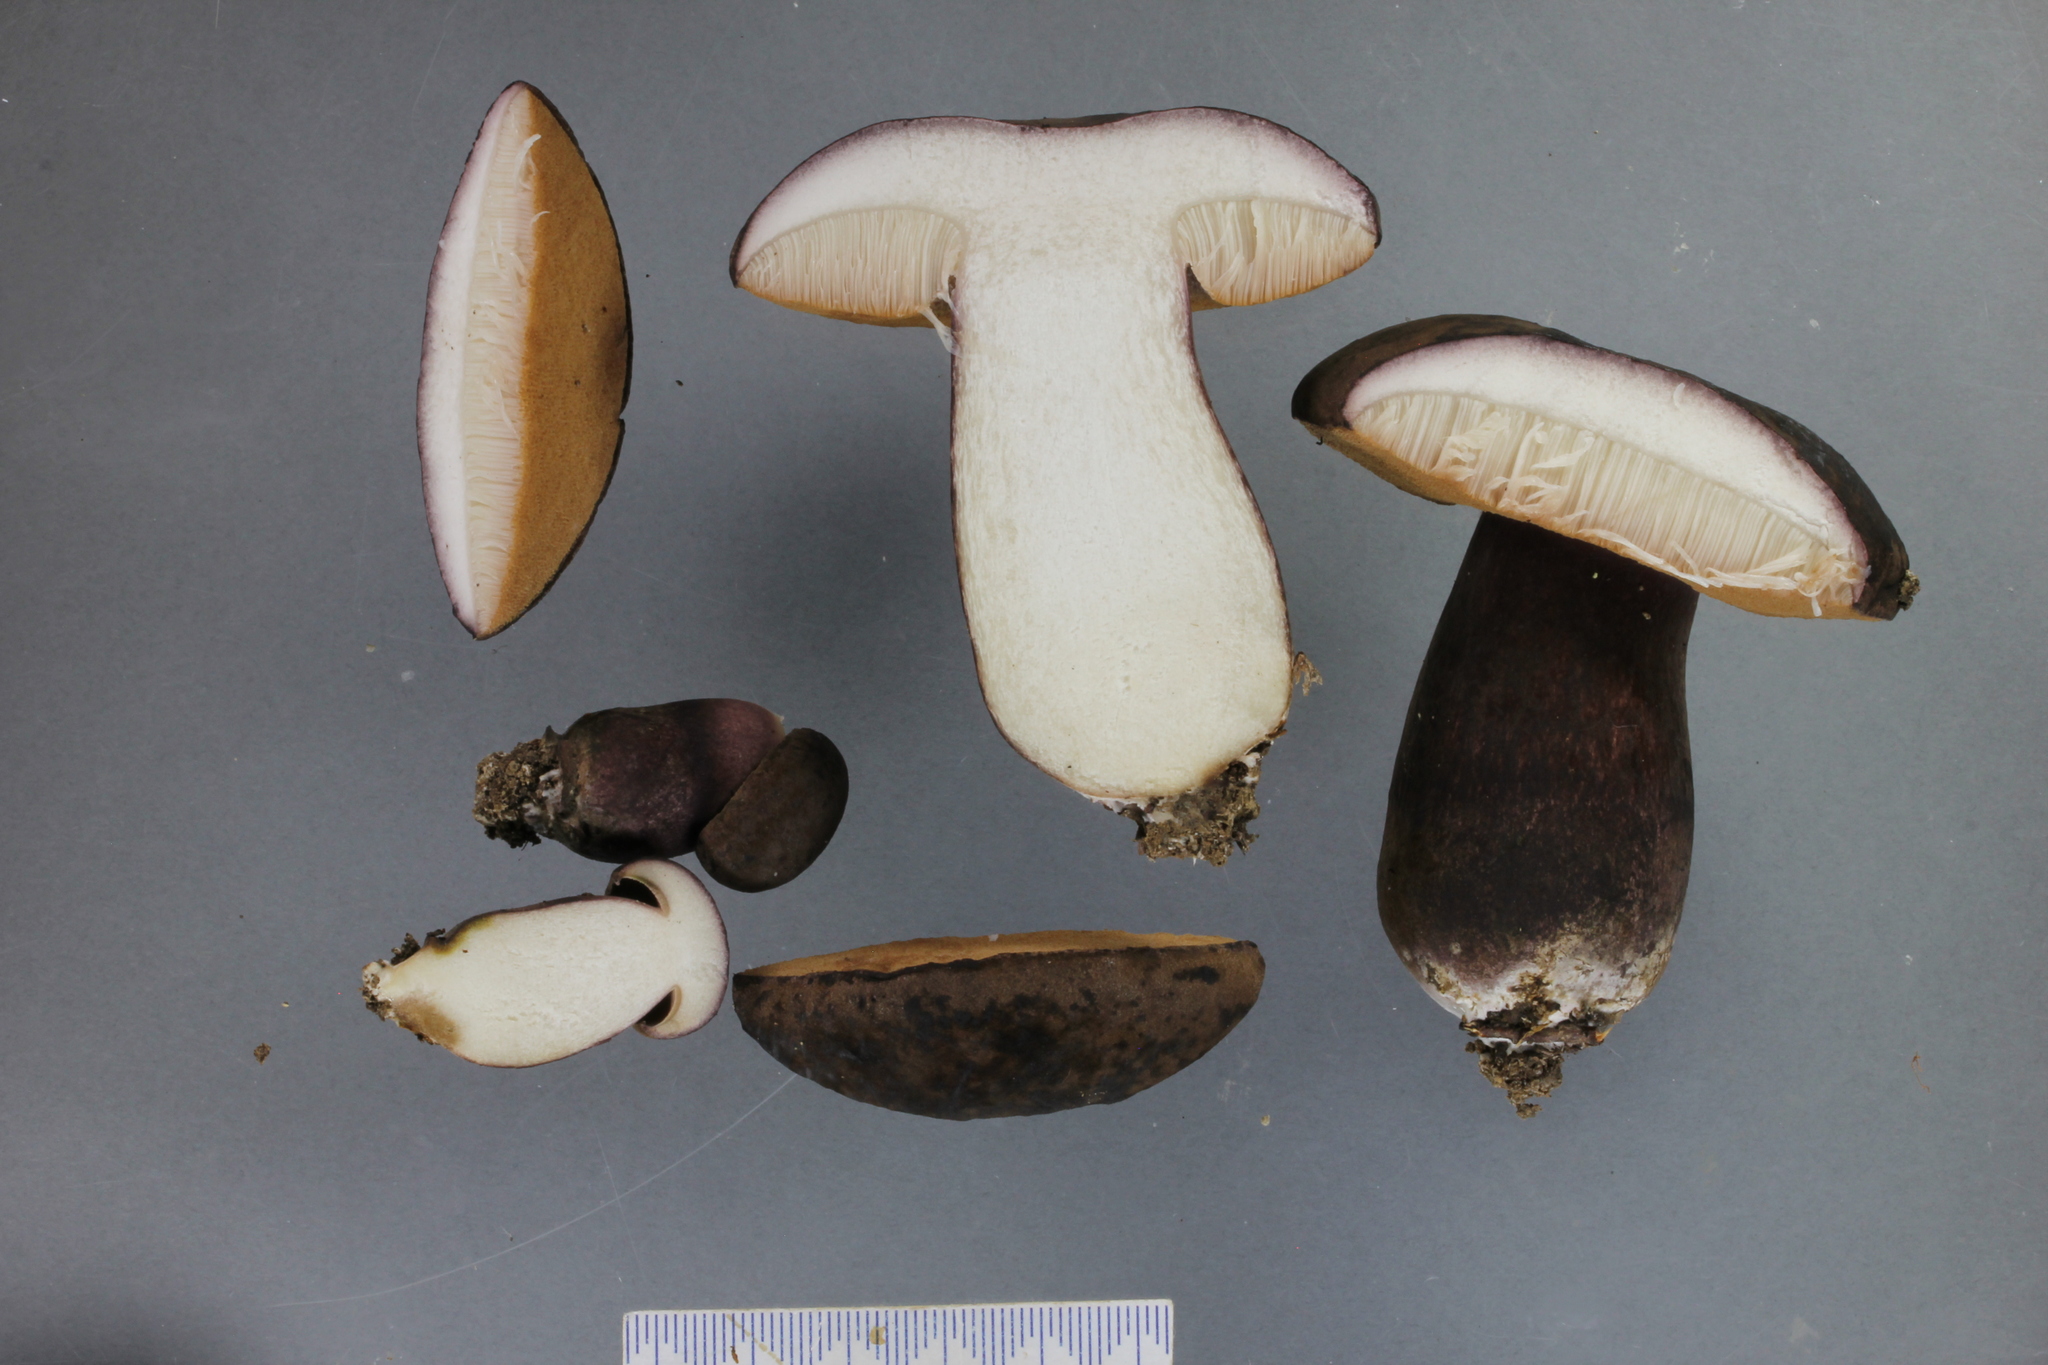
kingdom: Fungi
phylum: Basidiomycota
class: Agaricomycetes
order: Boletales
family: Boletaceae
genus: Porphyrellus
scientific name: Porphyrellus formosus
